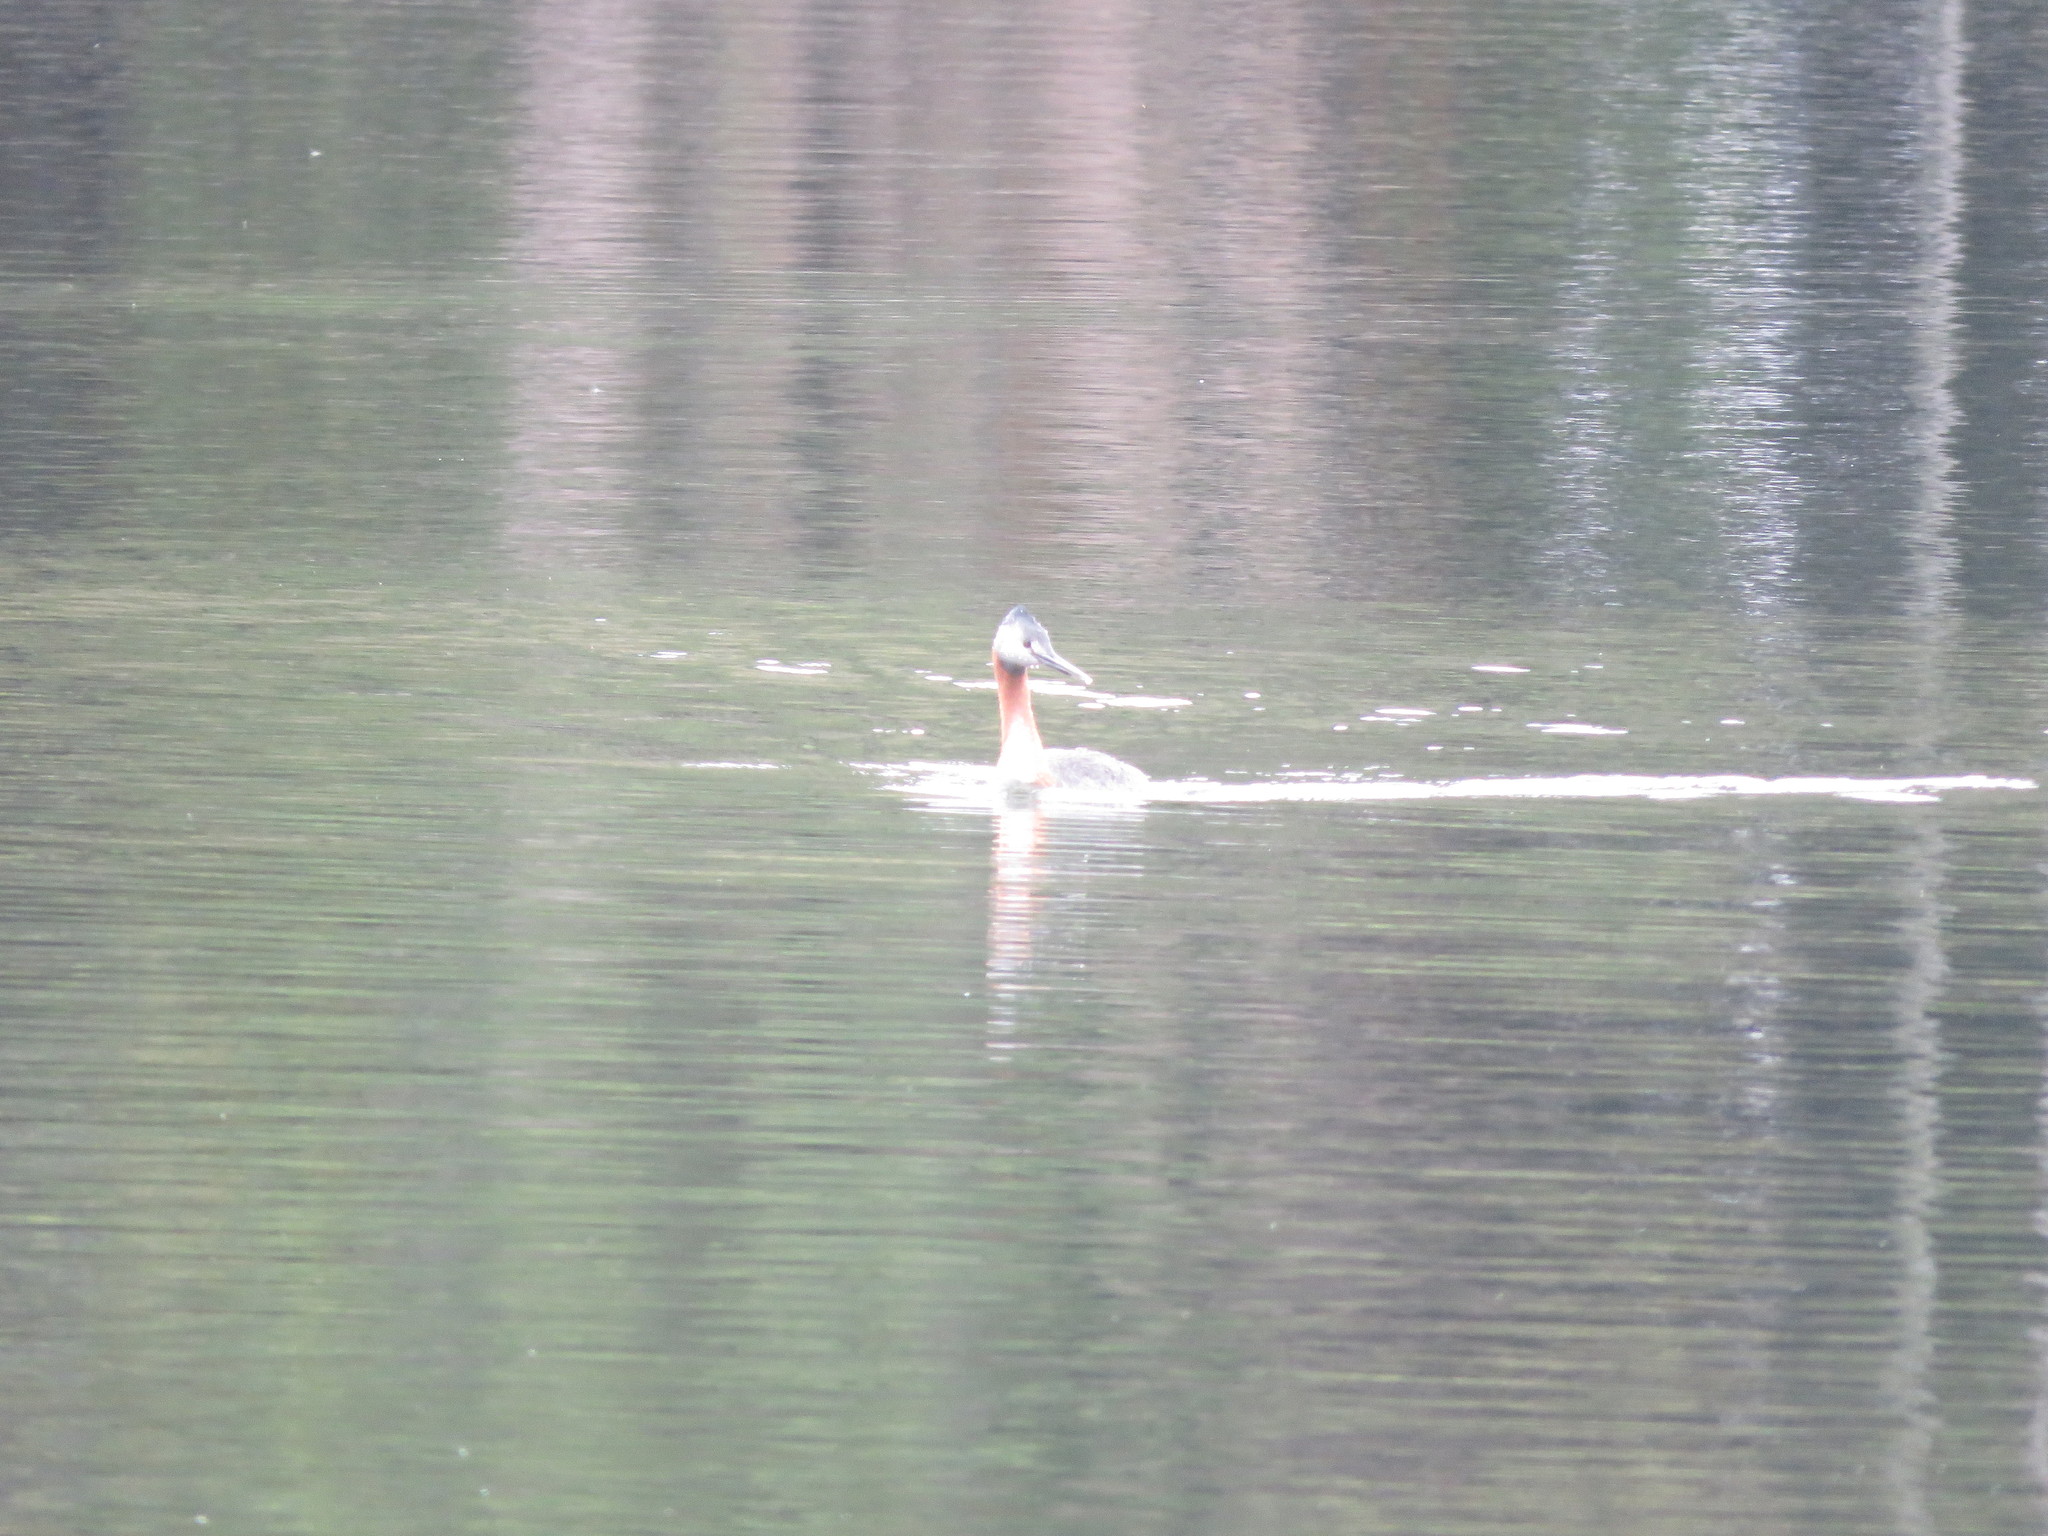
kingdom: Animalia
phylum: Chordata
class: Aves
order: Podicipediformes
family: Podicipedidae
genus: Podiceps
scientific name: Podiceps major
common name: Great grebe
